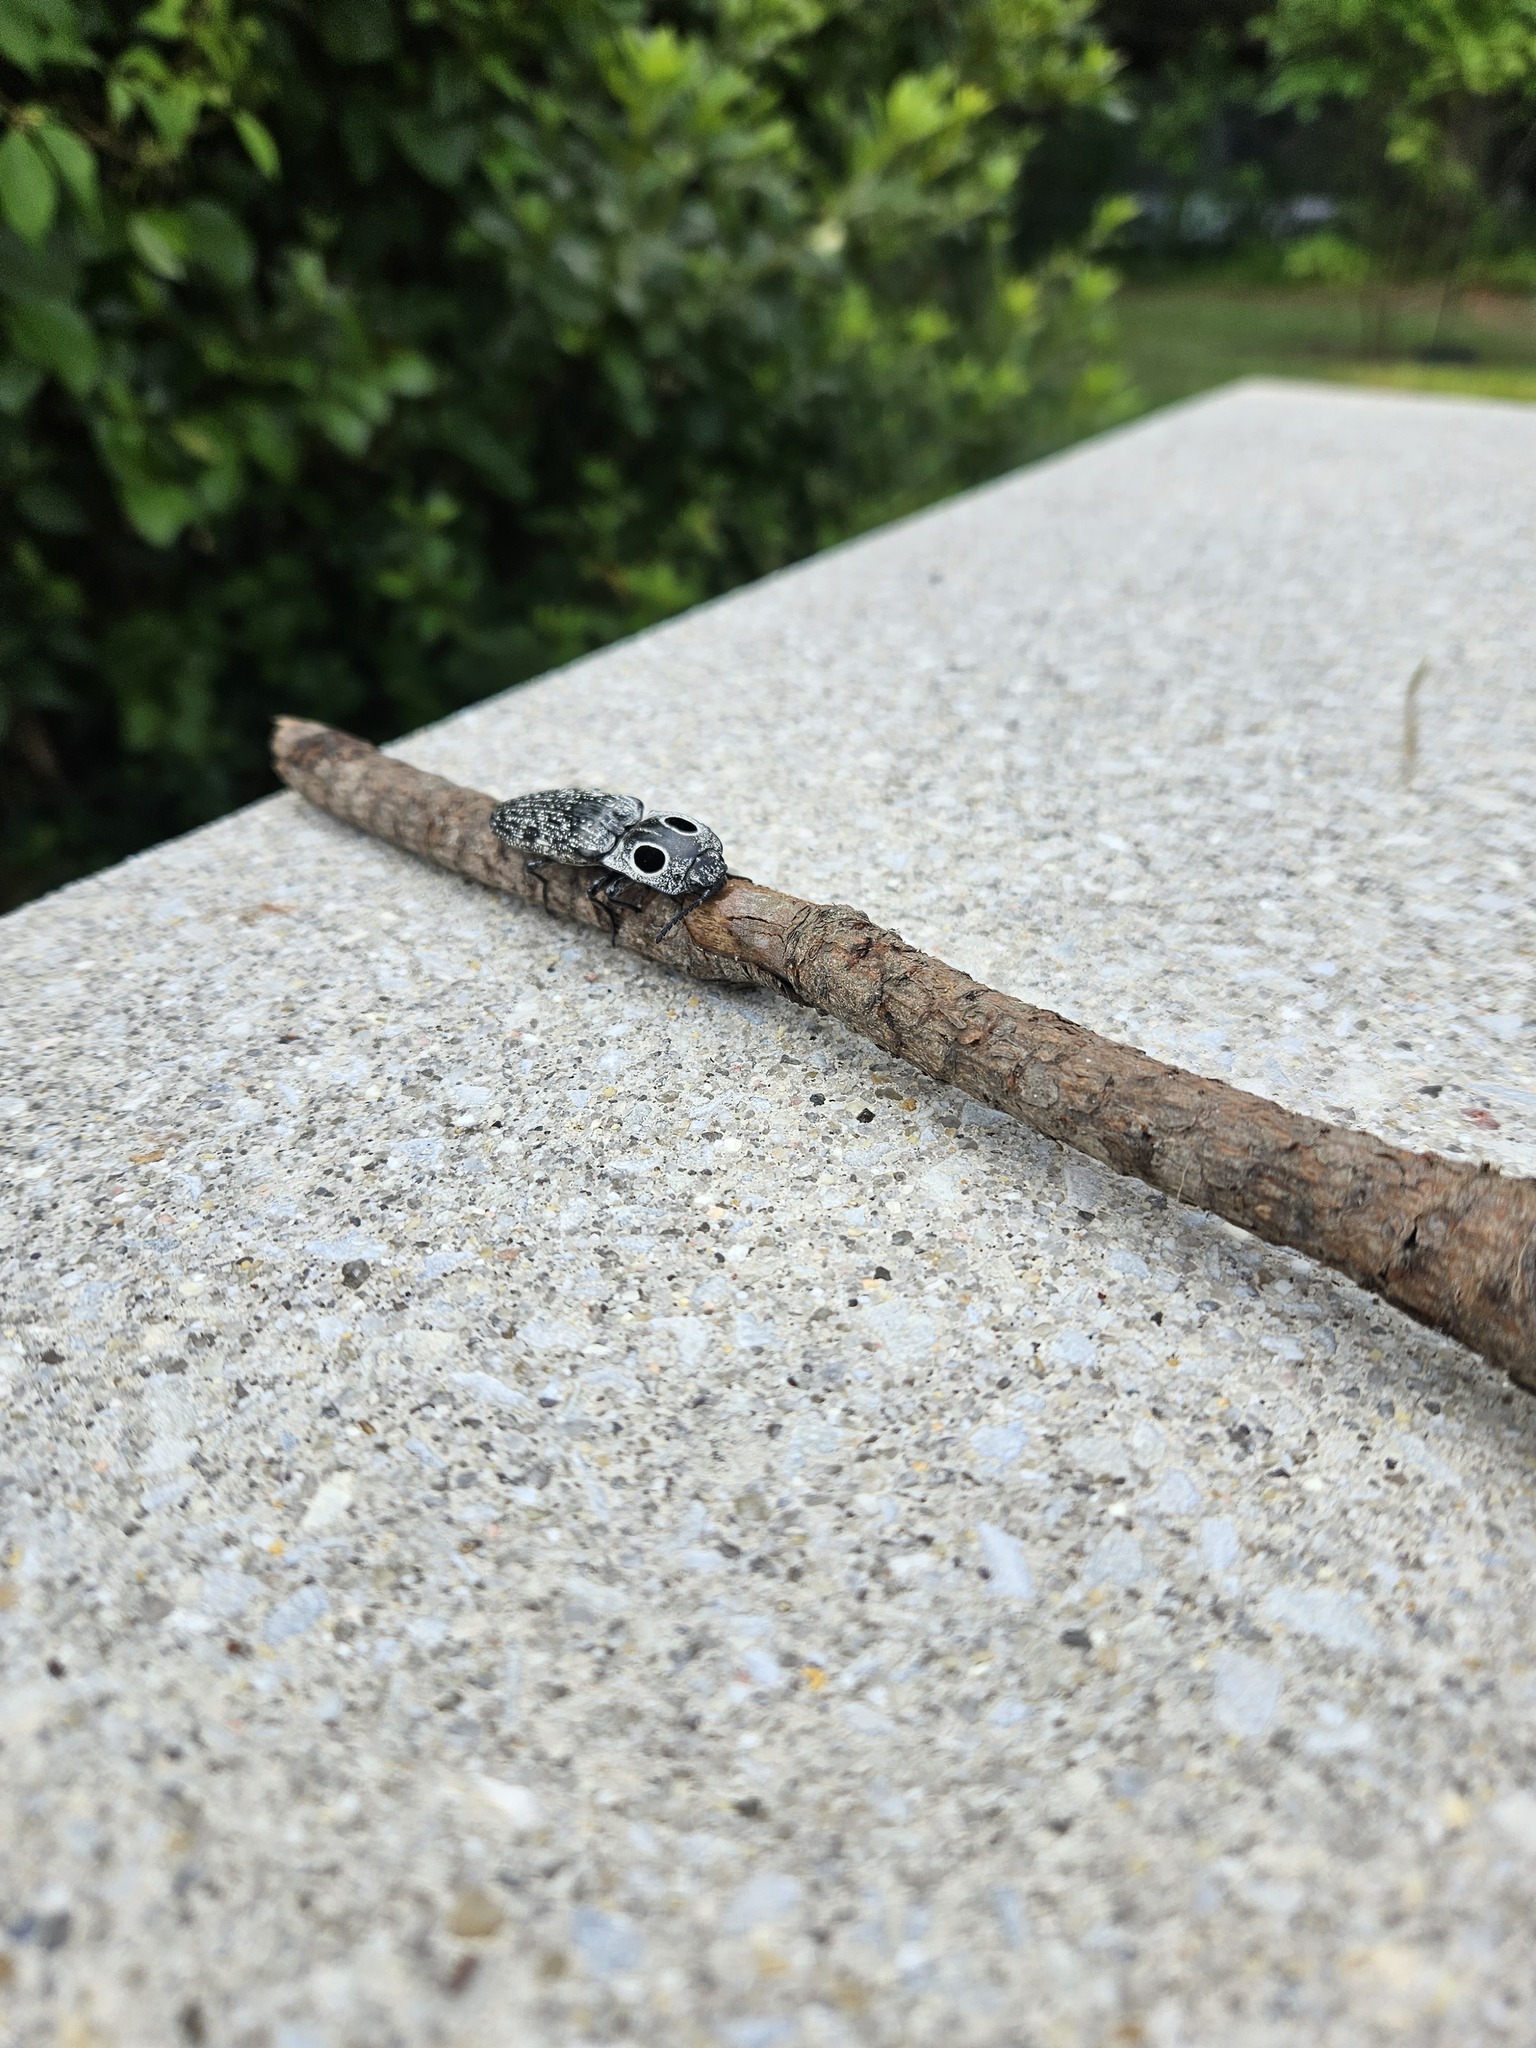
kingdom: Animalia
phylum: Arthropoda
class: Insecta
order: Coleoptera
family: Elateridae
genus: Alaus
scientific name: Alaus oculatus
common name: Eastern eyed click beetle
